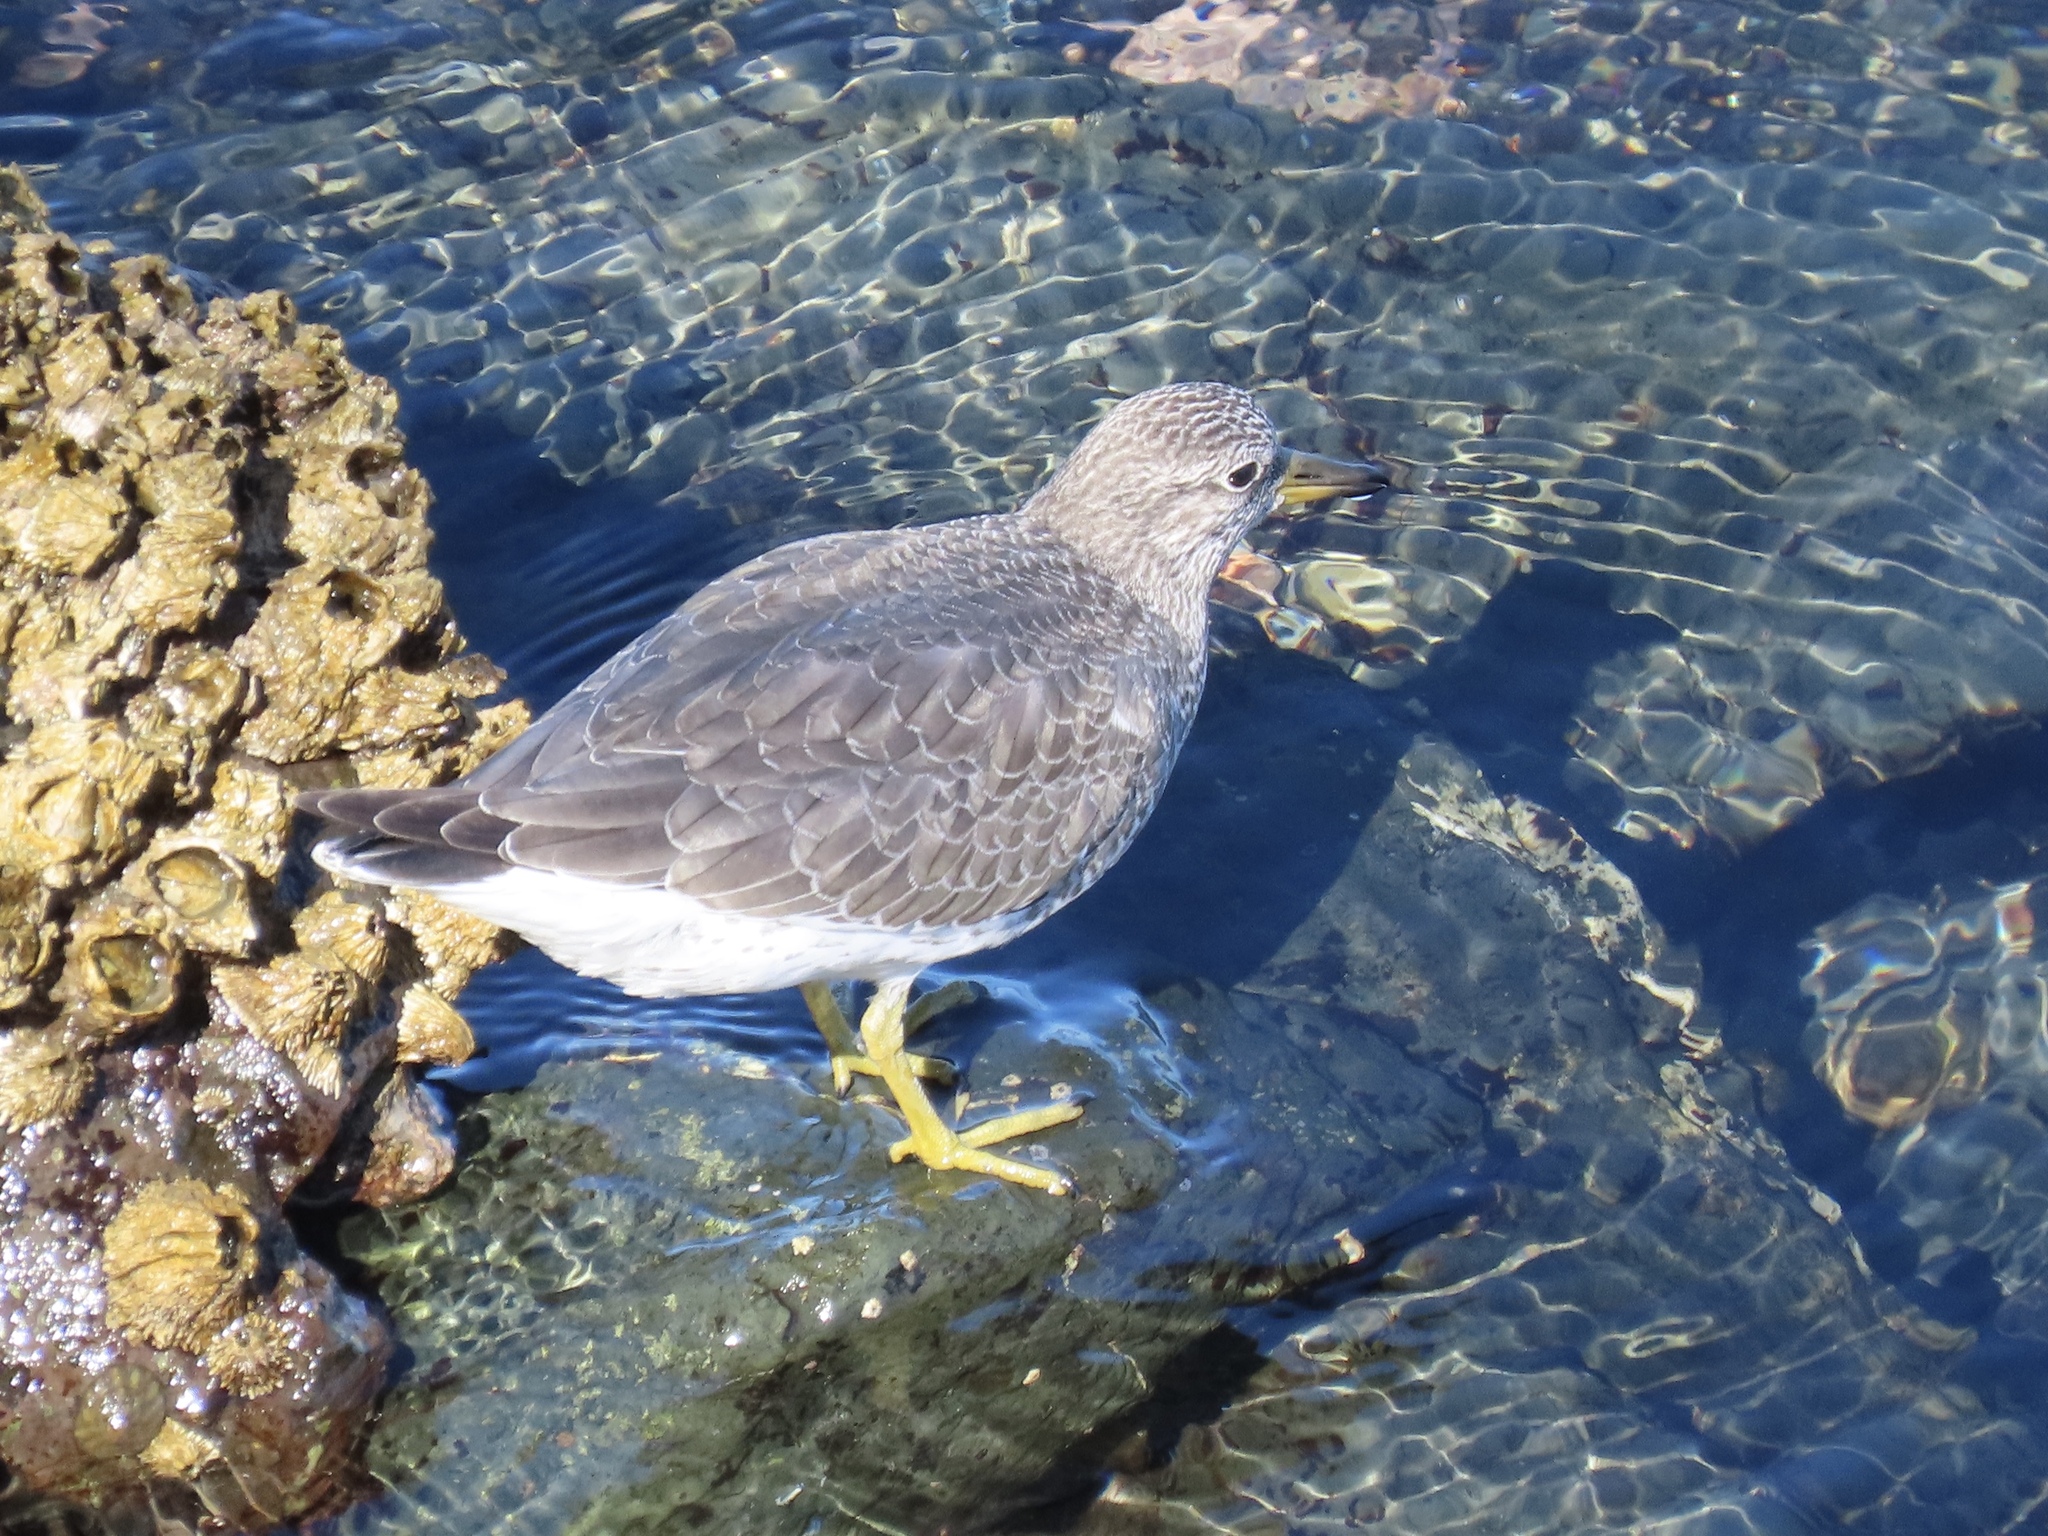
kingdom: Animalia
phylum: Chordata
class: Aves
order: Charadriiformes
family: Scolopacidae
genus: Calidris
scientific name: Calidris virgata
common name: Surfbird
